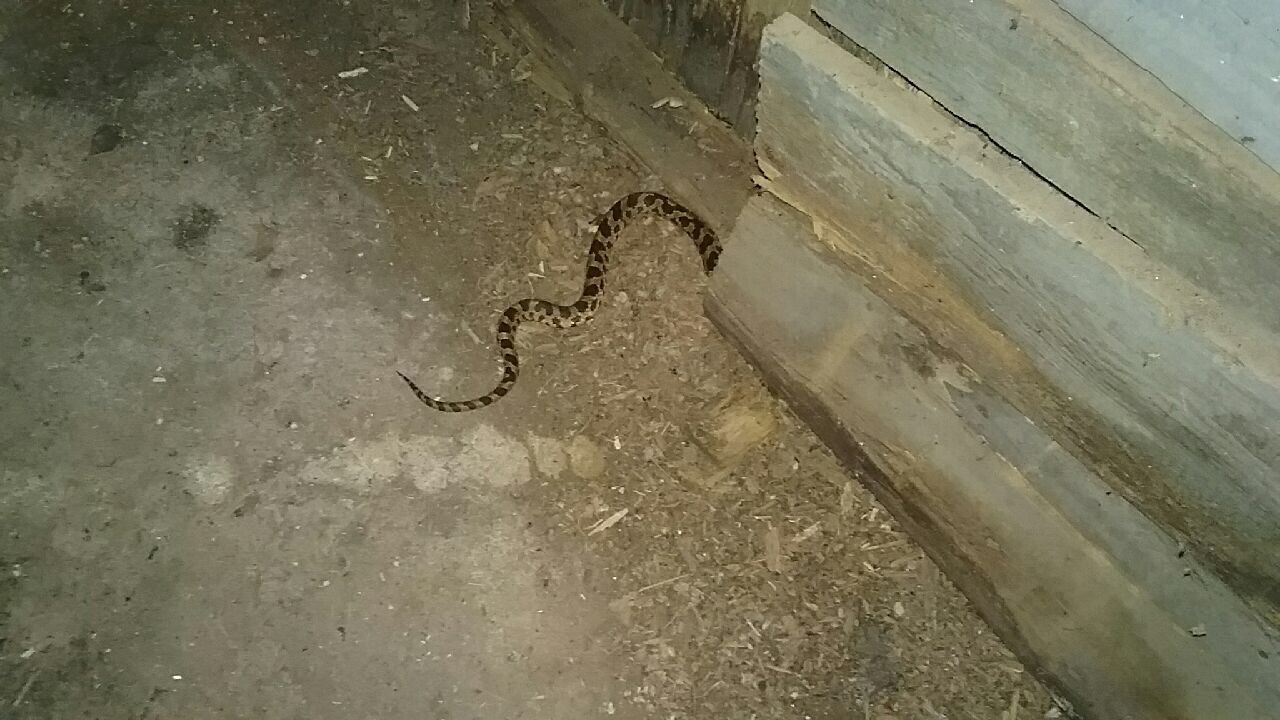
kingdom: Animalia
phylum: Chordata
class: Squamata
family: Colubridae
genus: Pantherophis
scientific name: Pantherophis vulpinus
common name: Eastern fox snake
